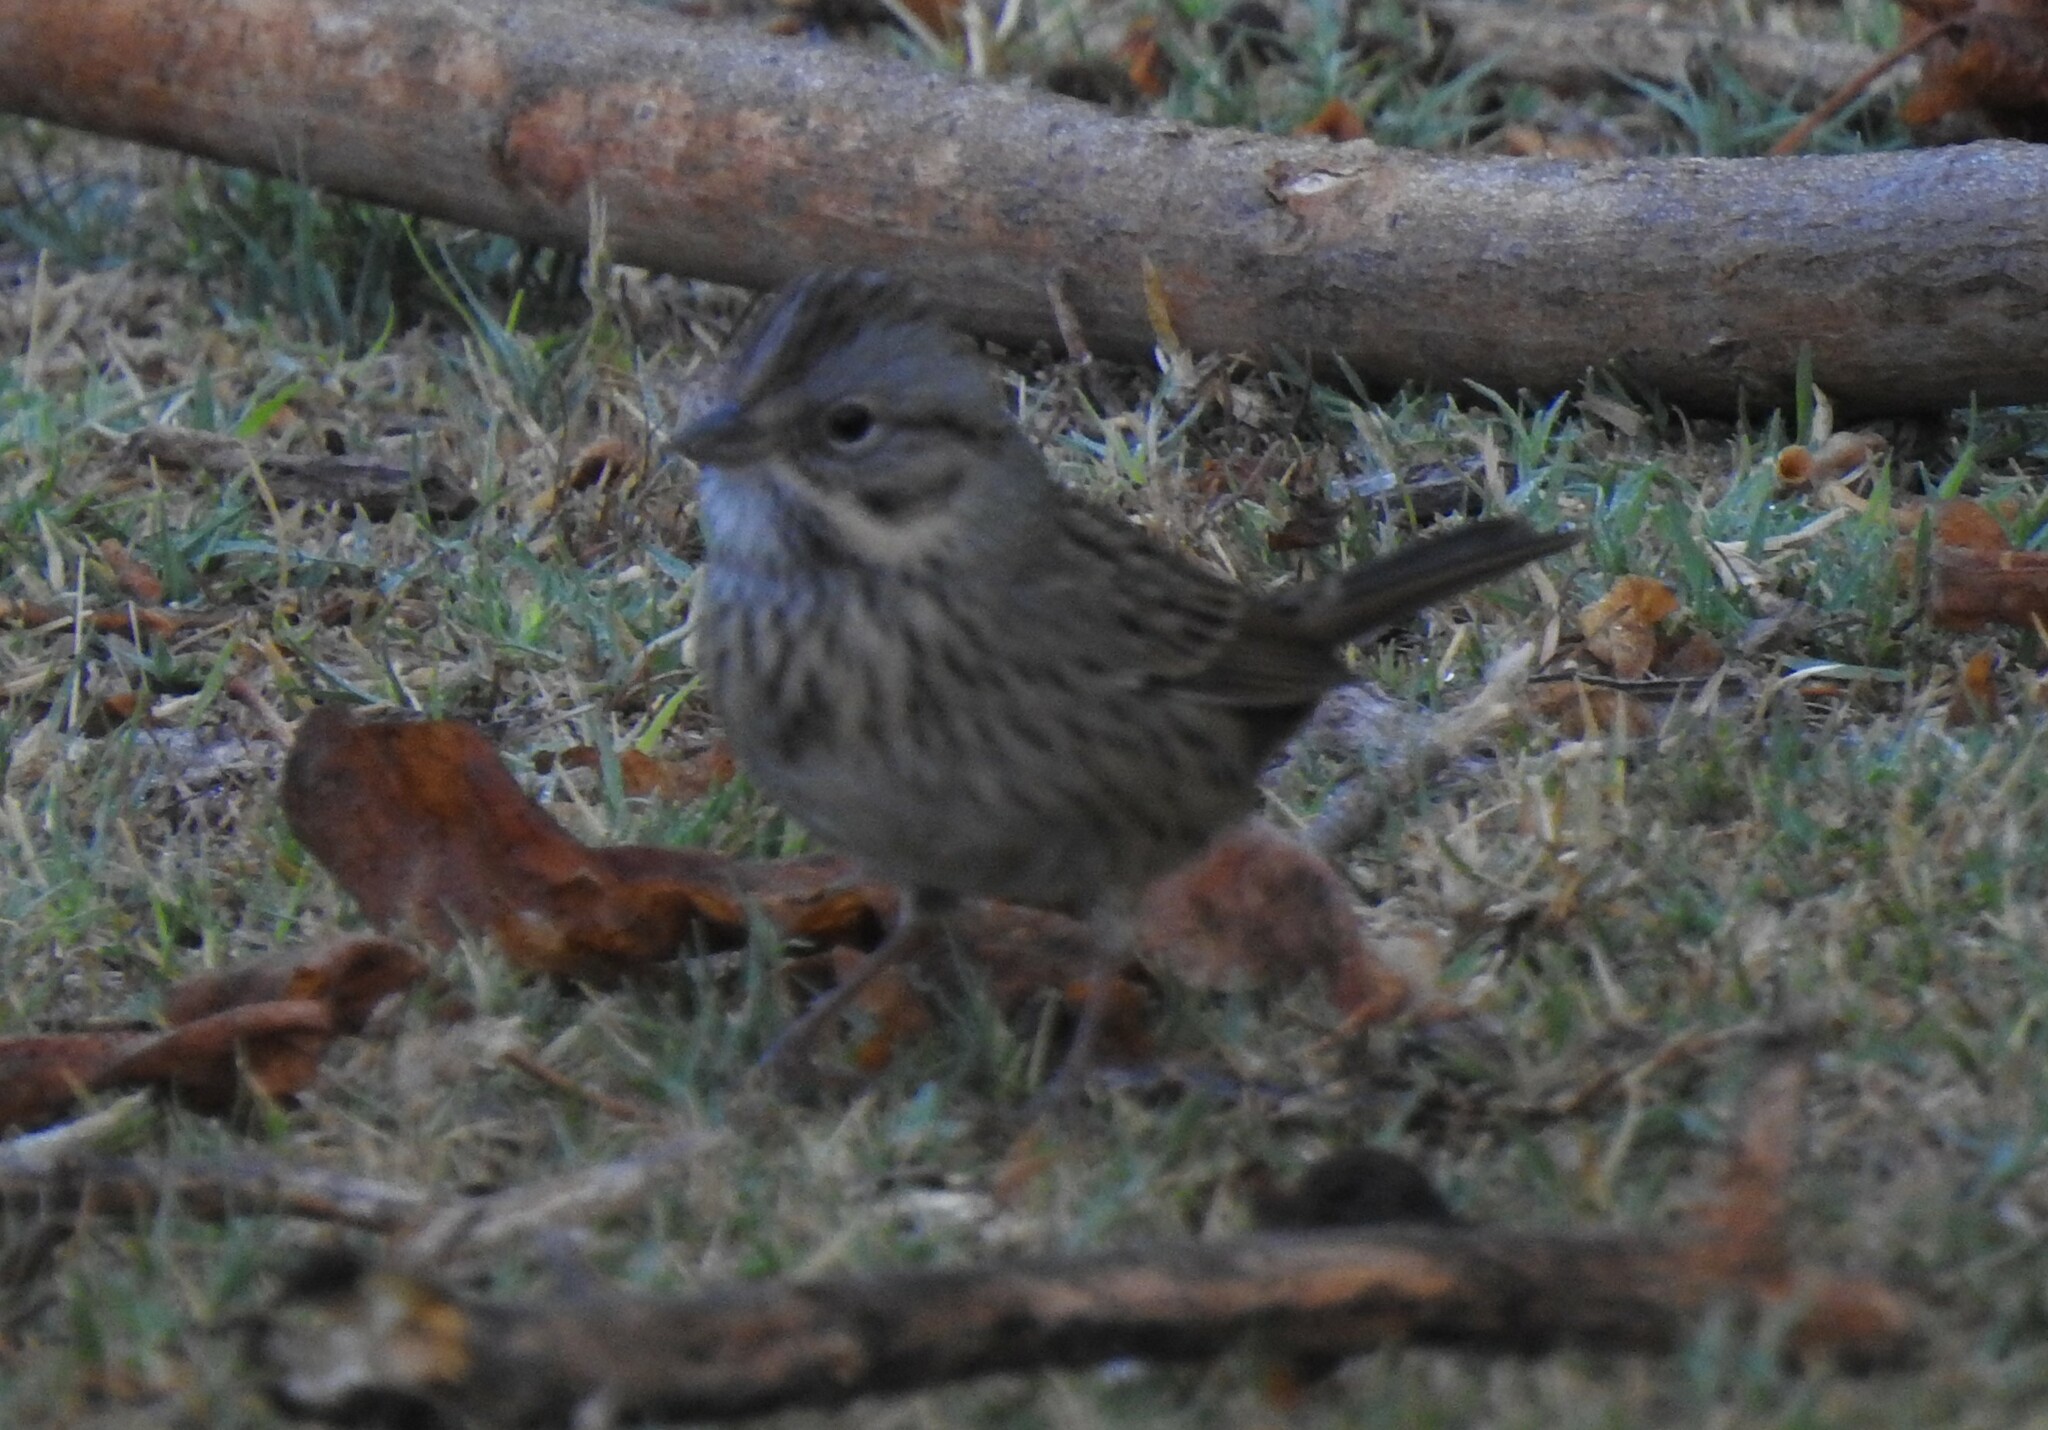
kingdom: Animalia
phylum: Chordata
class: Aves
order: Passeriformes
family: Passerellidae
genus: Melospiza
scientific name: Melospiza lincolnii
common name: Lincoln's sparrow
